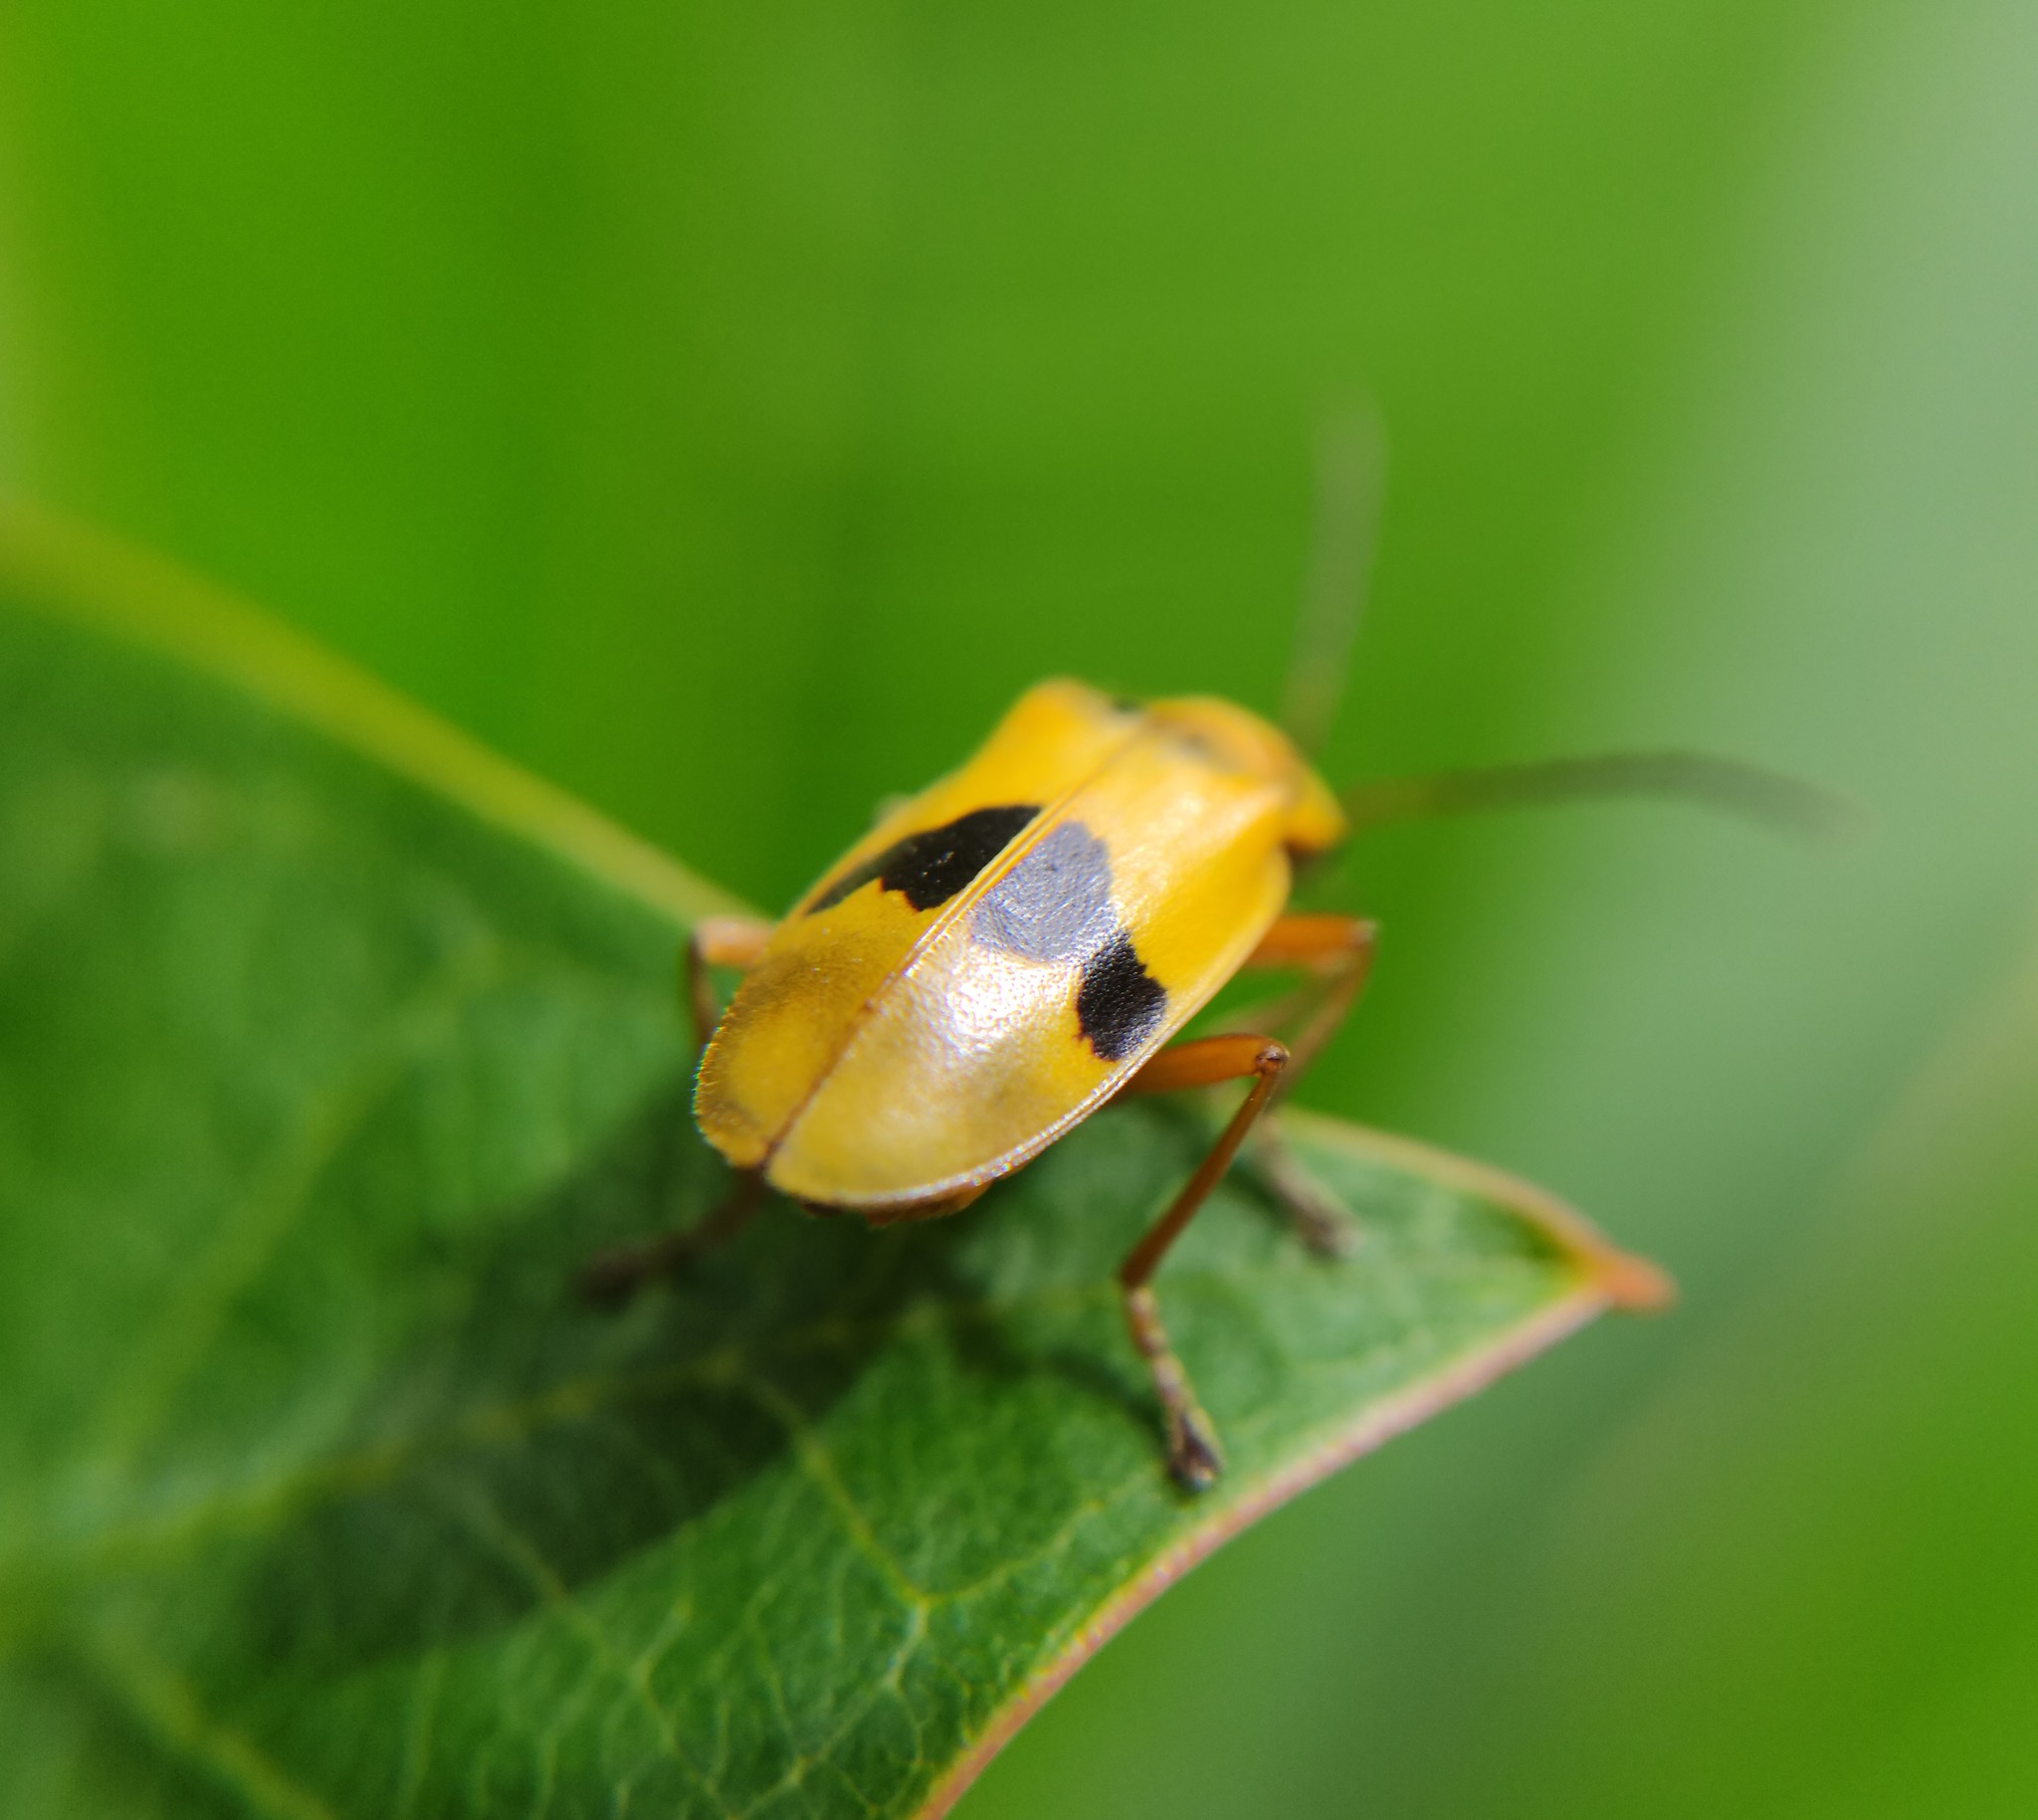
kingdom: Animalia
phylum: Arthropoda
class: Insecta
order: Coleoptera
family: Cantharidae
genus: Chauliognathus
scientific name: Chauliognathus
